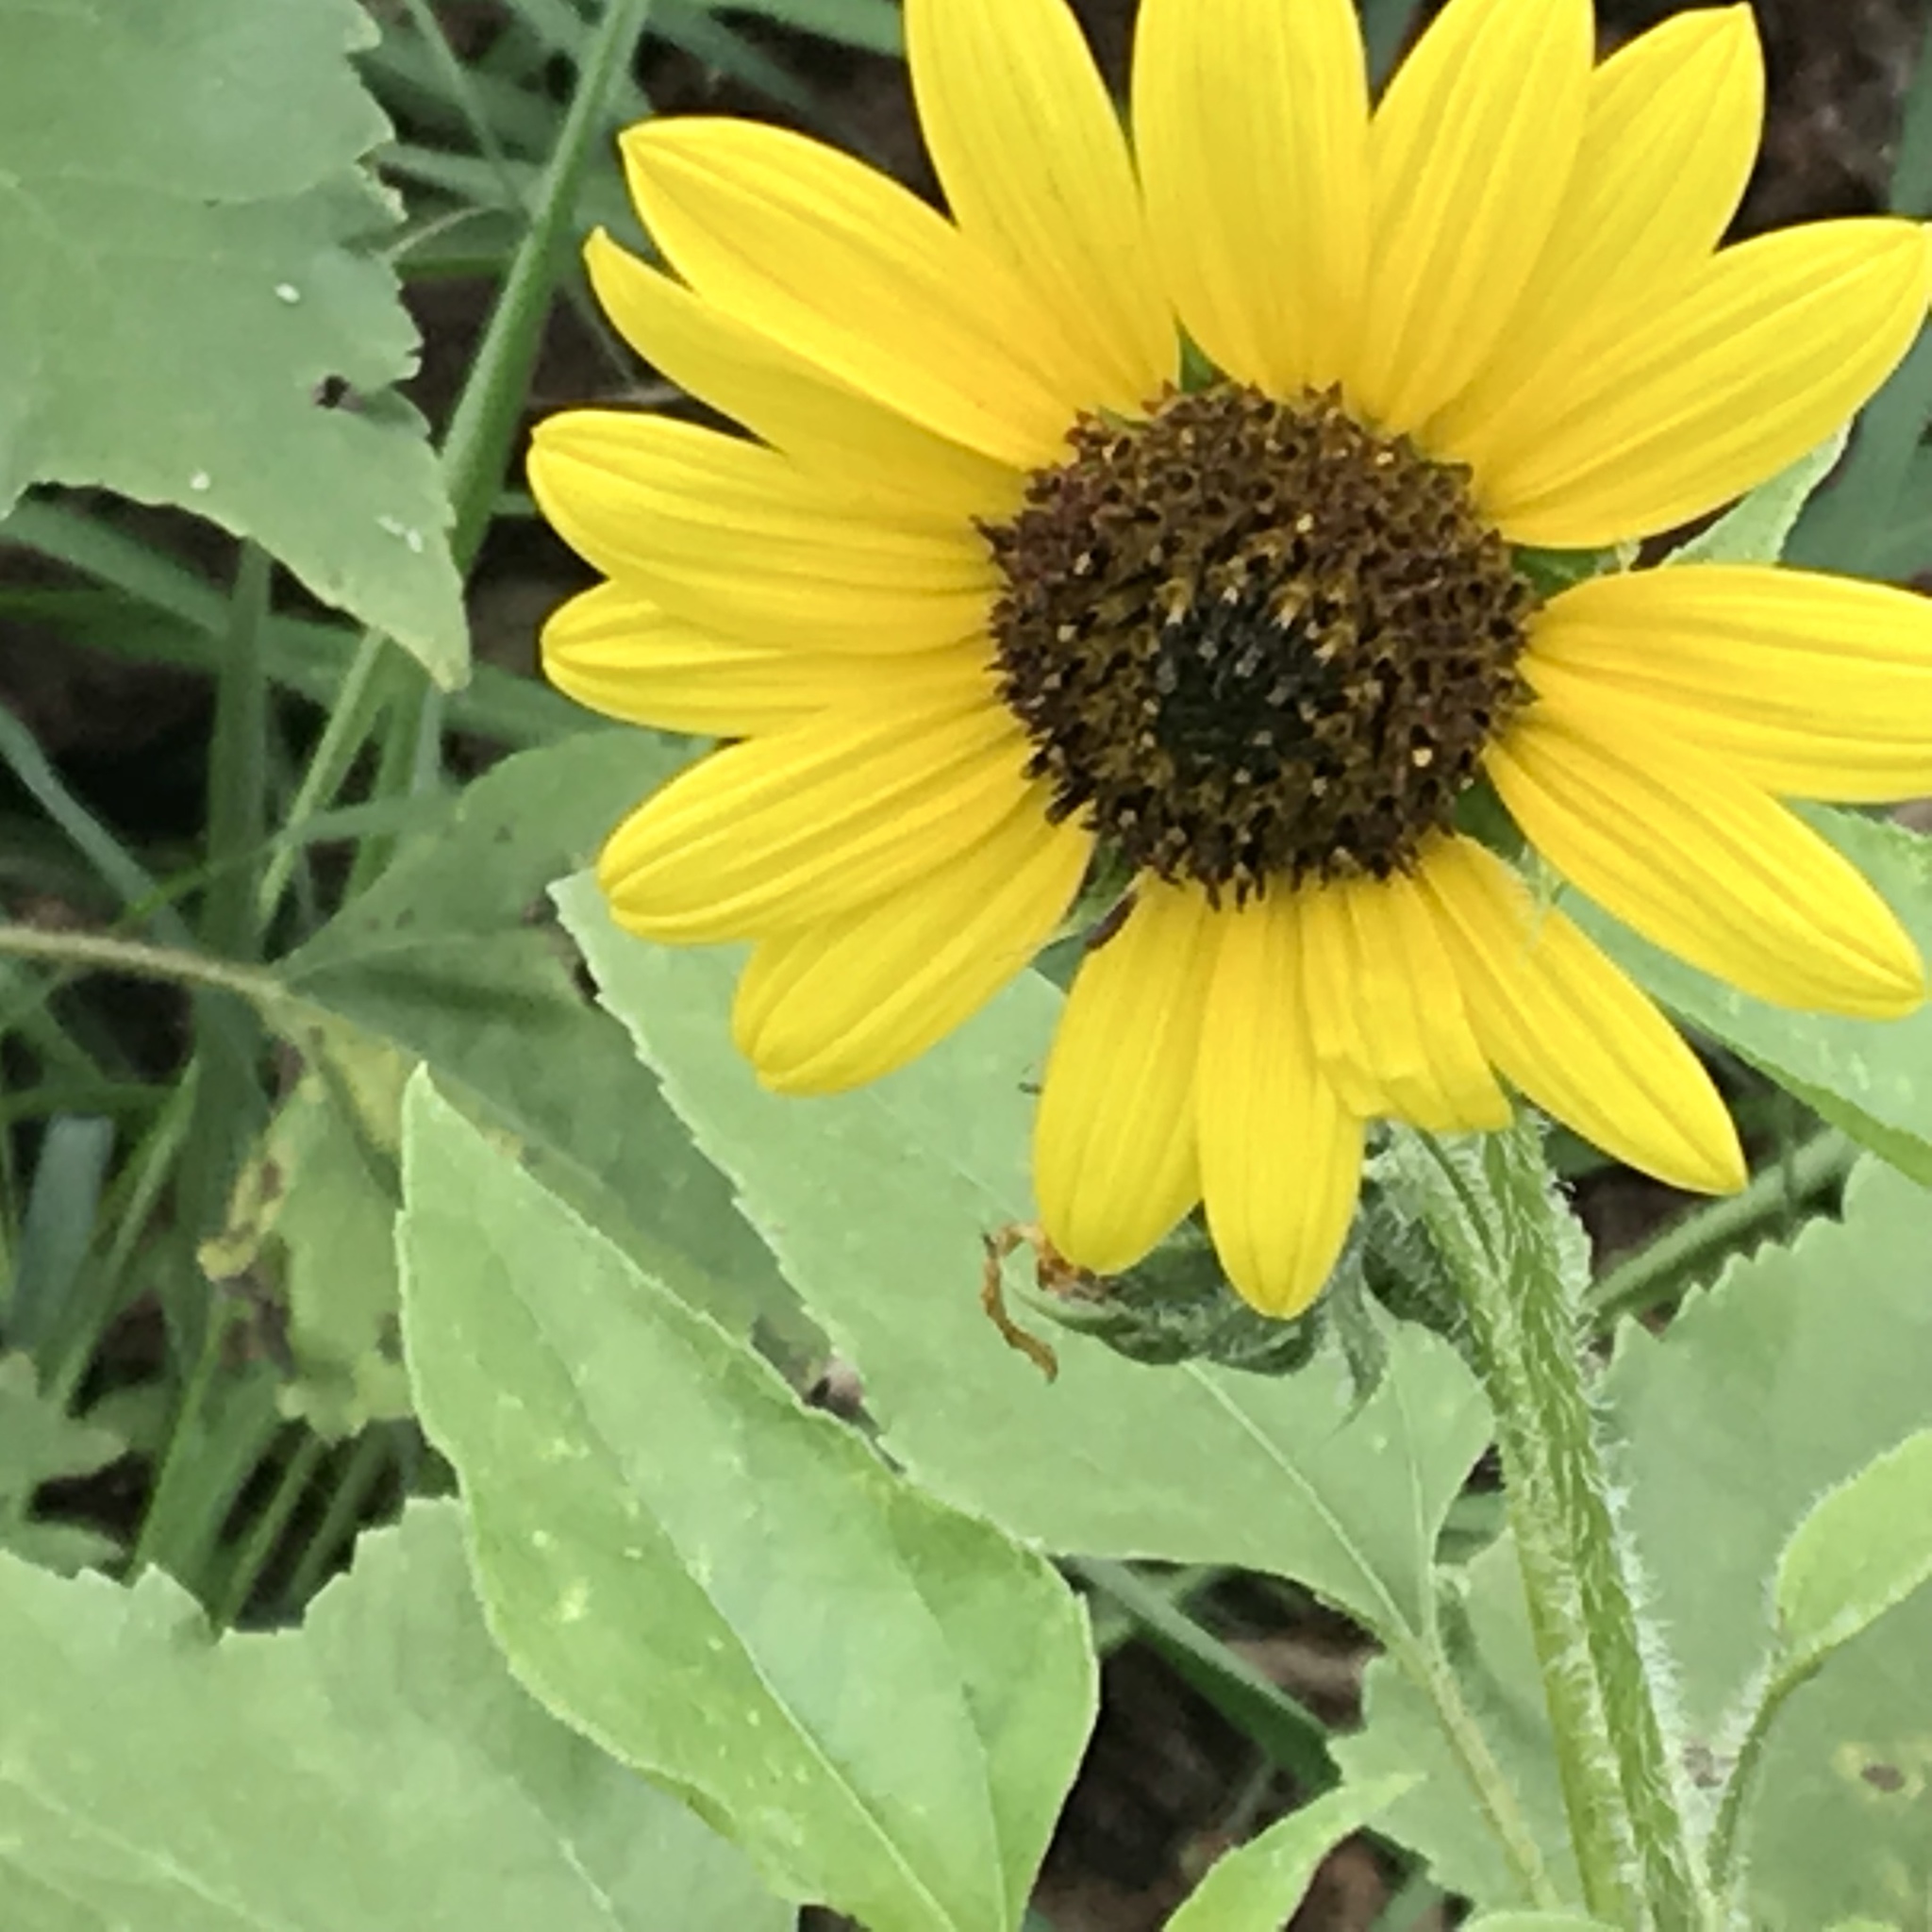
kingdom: Plantae
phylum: Tracheophyta
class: Magnoliopsida
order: Asterales
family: Asteraceae
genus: Helianthus
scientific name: Helianthus annuus
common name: Sunflower
